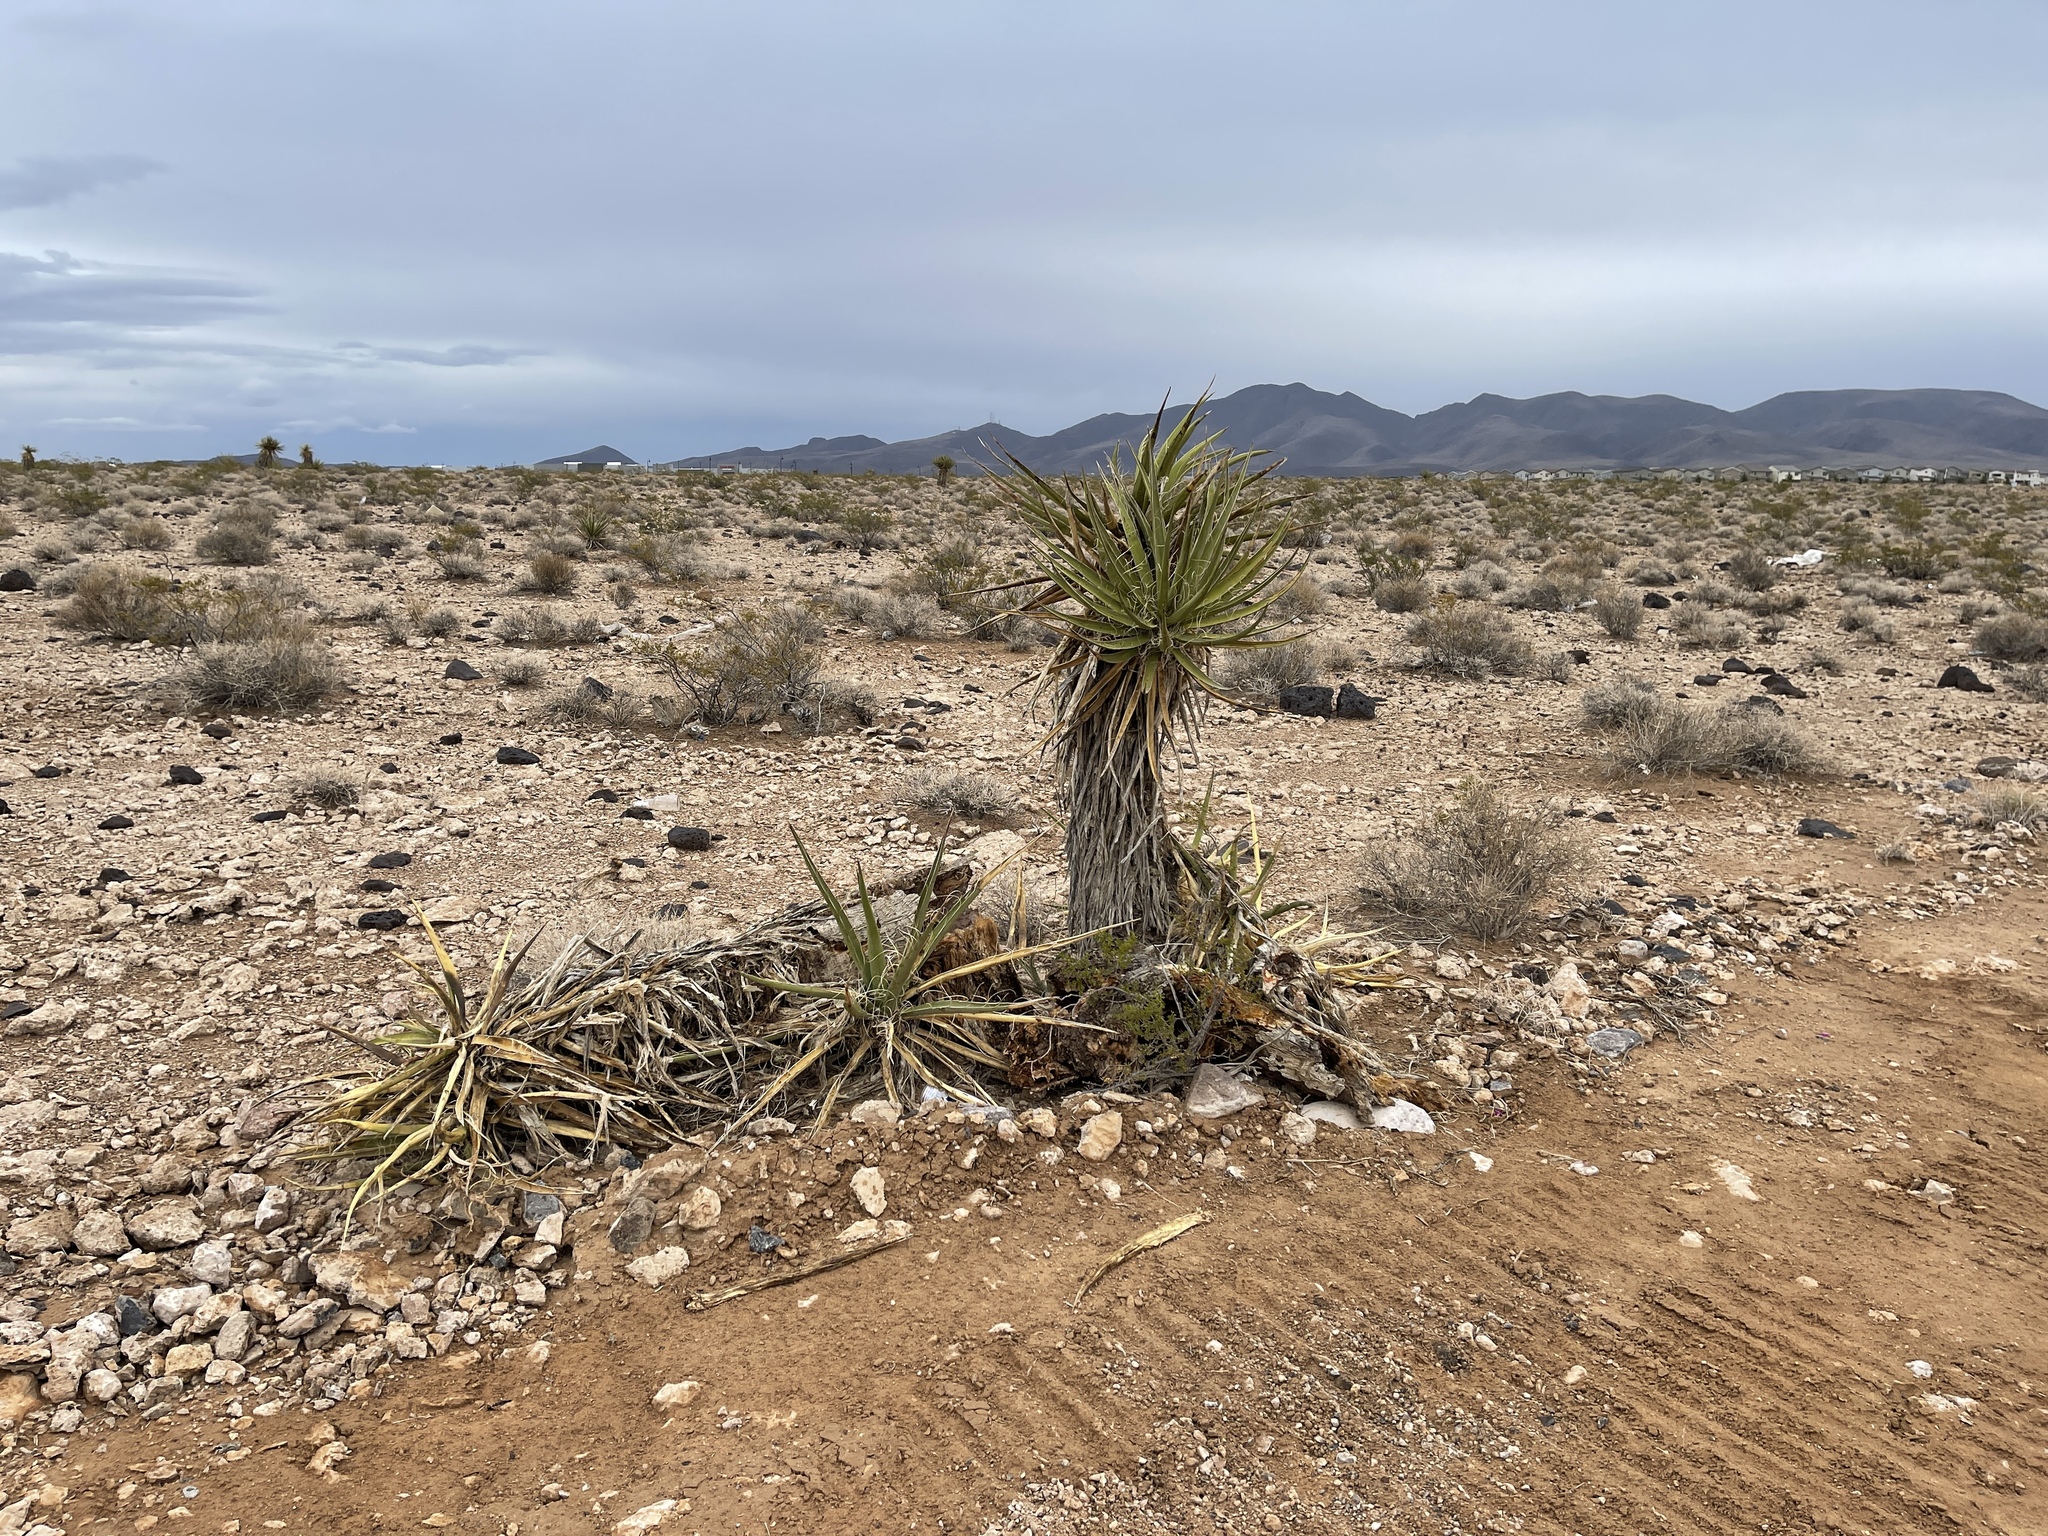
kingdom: Plantae
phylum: Tracheophyta
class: Liliopsida
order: Asparagales
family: Asparagaceae
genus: Yucca
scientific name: Yucca schidigera
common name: Mojave yucca
